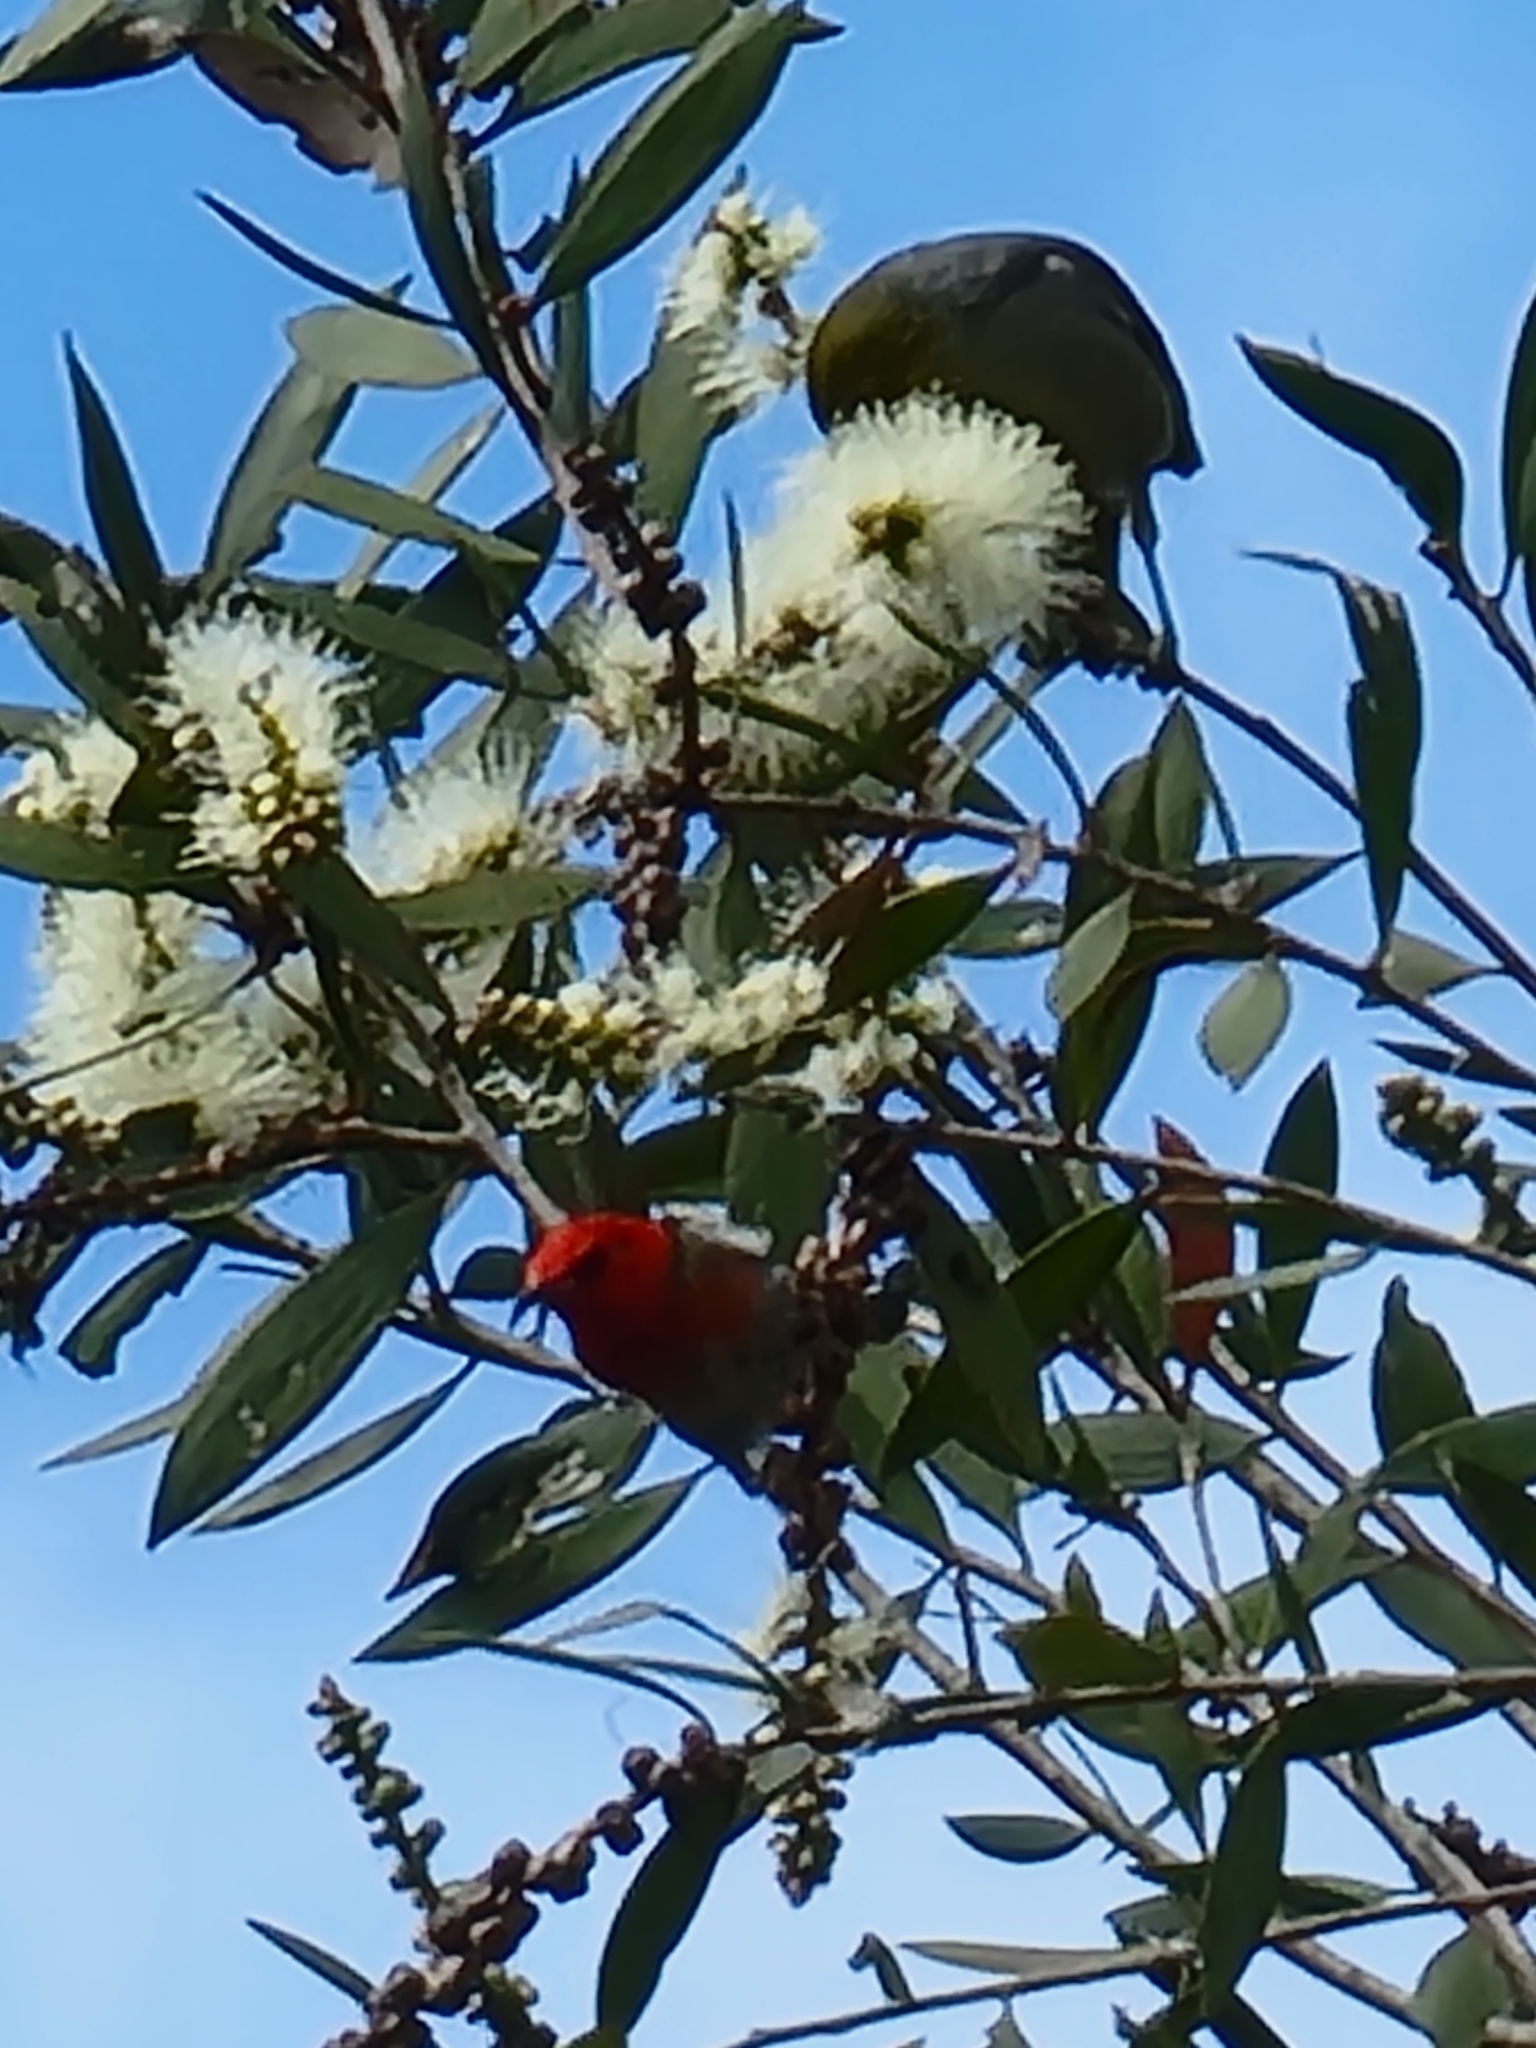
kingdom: Animalia
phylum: Chordata
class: Aves
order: Passeriformes
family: Meliphagidae
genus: Myzomela
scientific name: Myzomela sanguinolenta
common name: Scarlet myzomela
